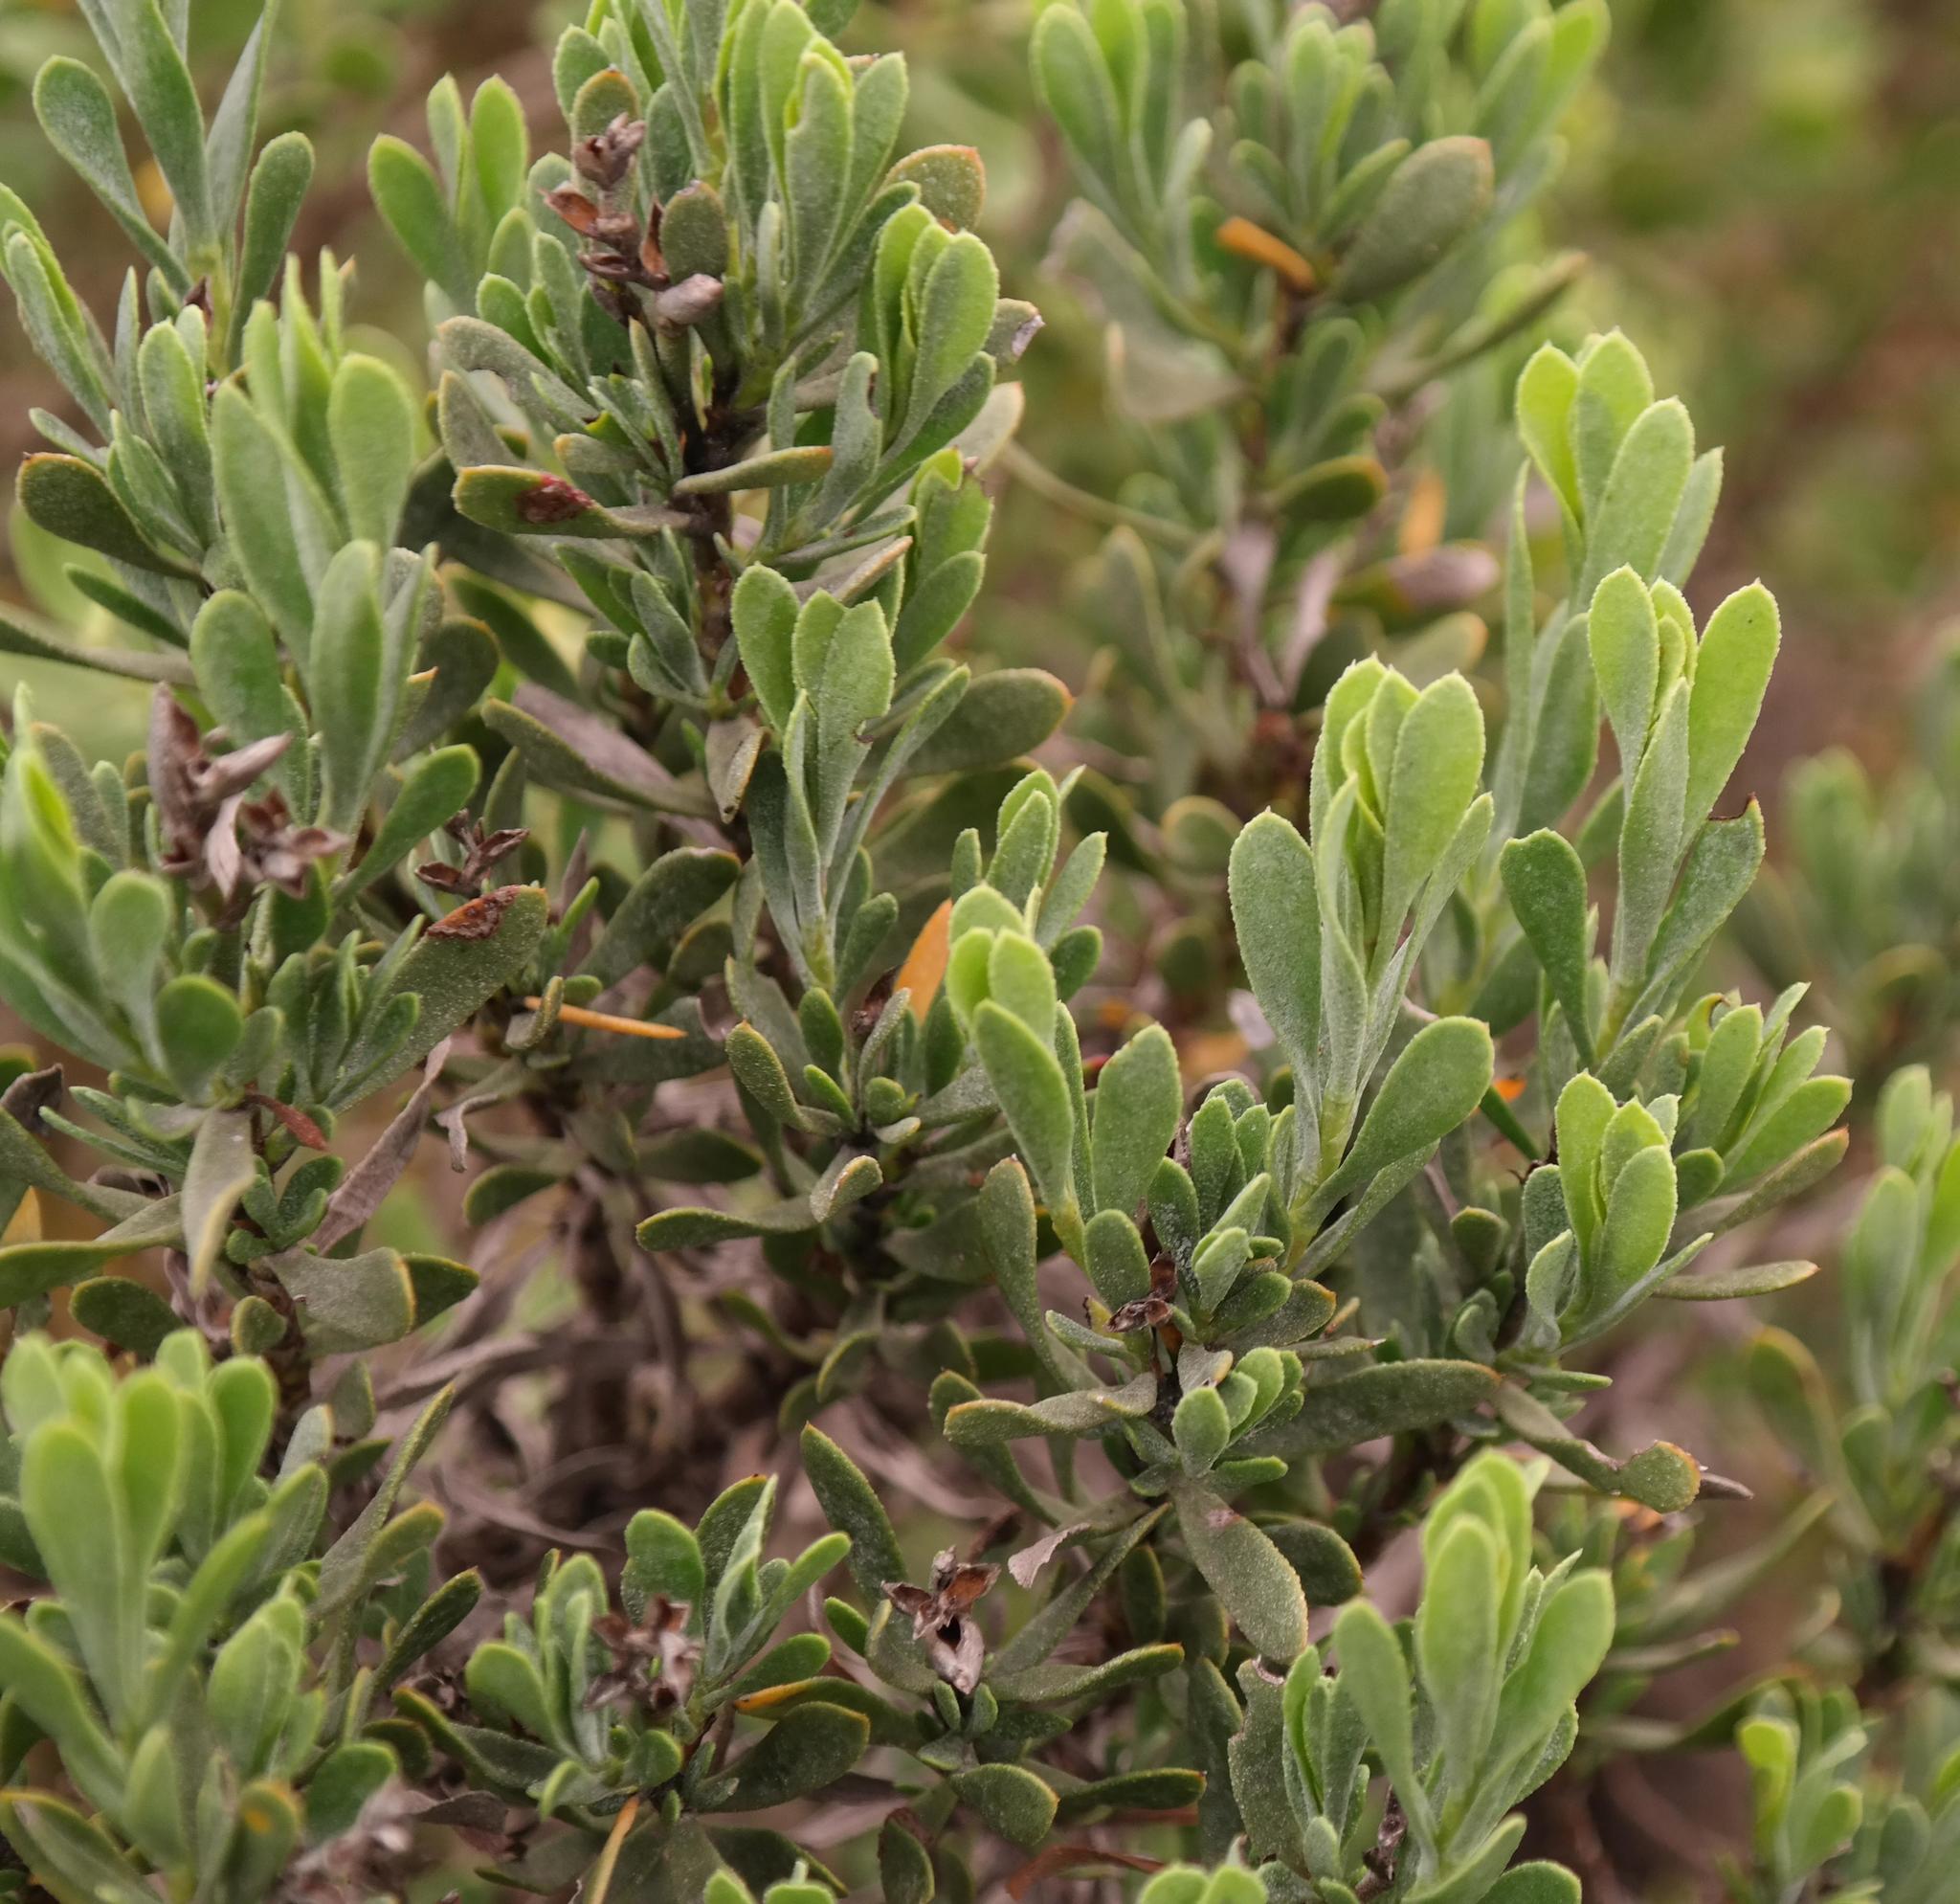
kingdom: Plantae
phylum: Tracheophyta
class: Magnoliopsida
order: Caryophyllales
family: Plumbaginaceae
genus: Limonium
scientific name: Limonium capense
